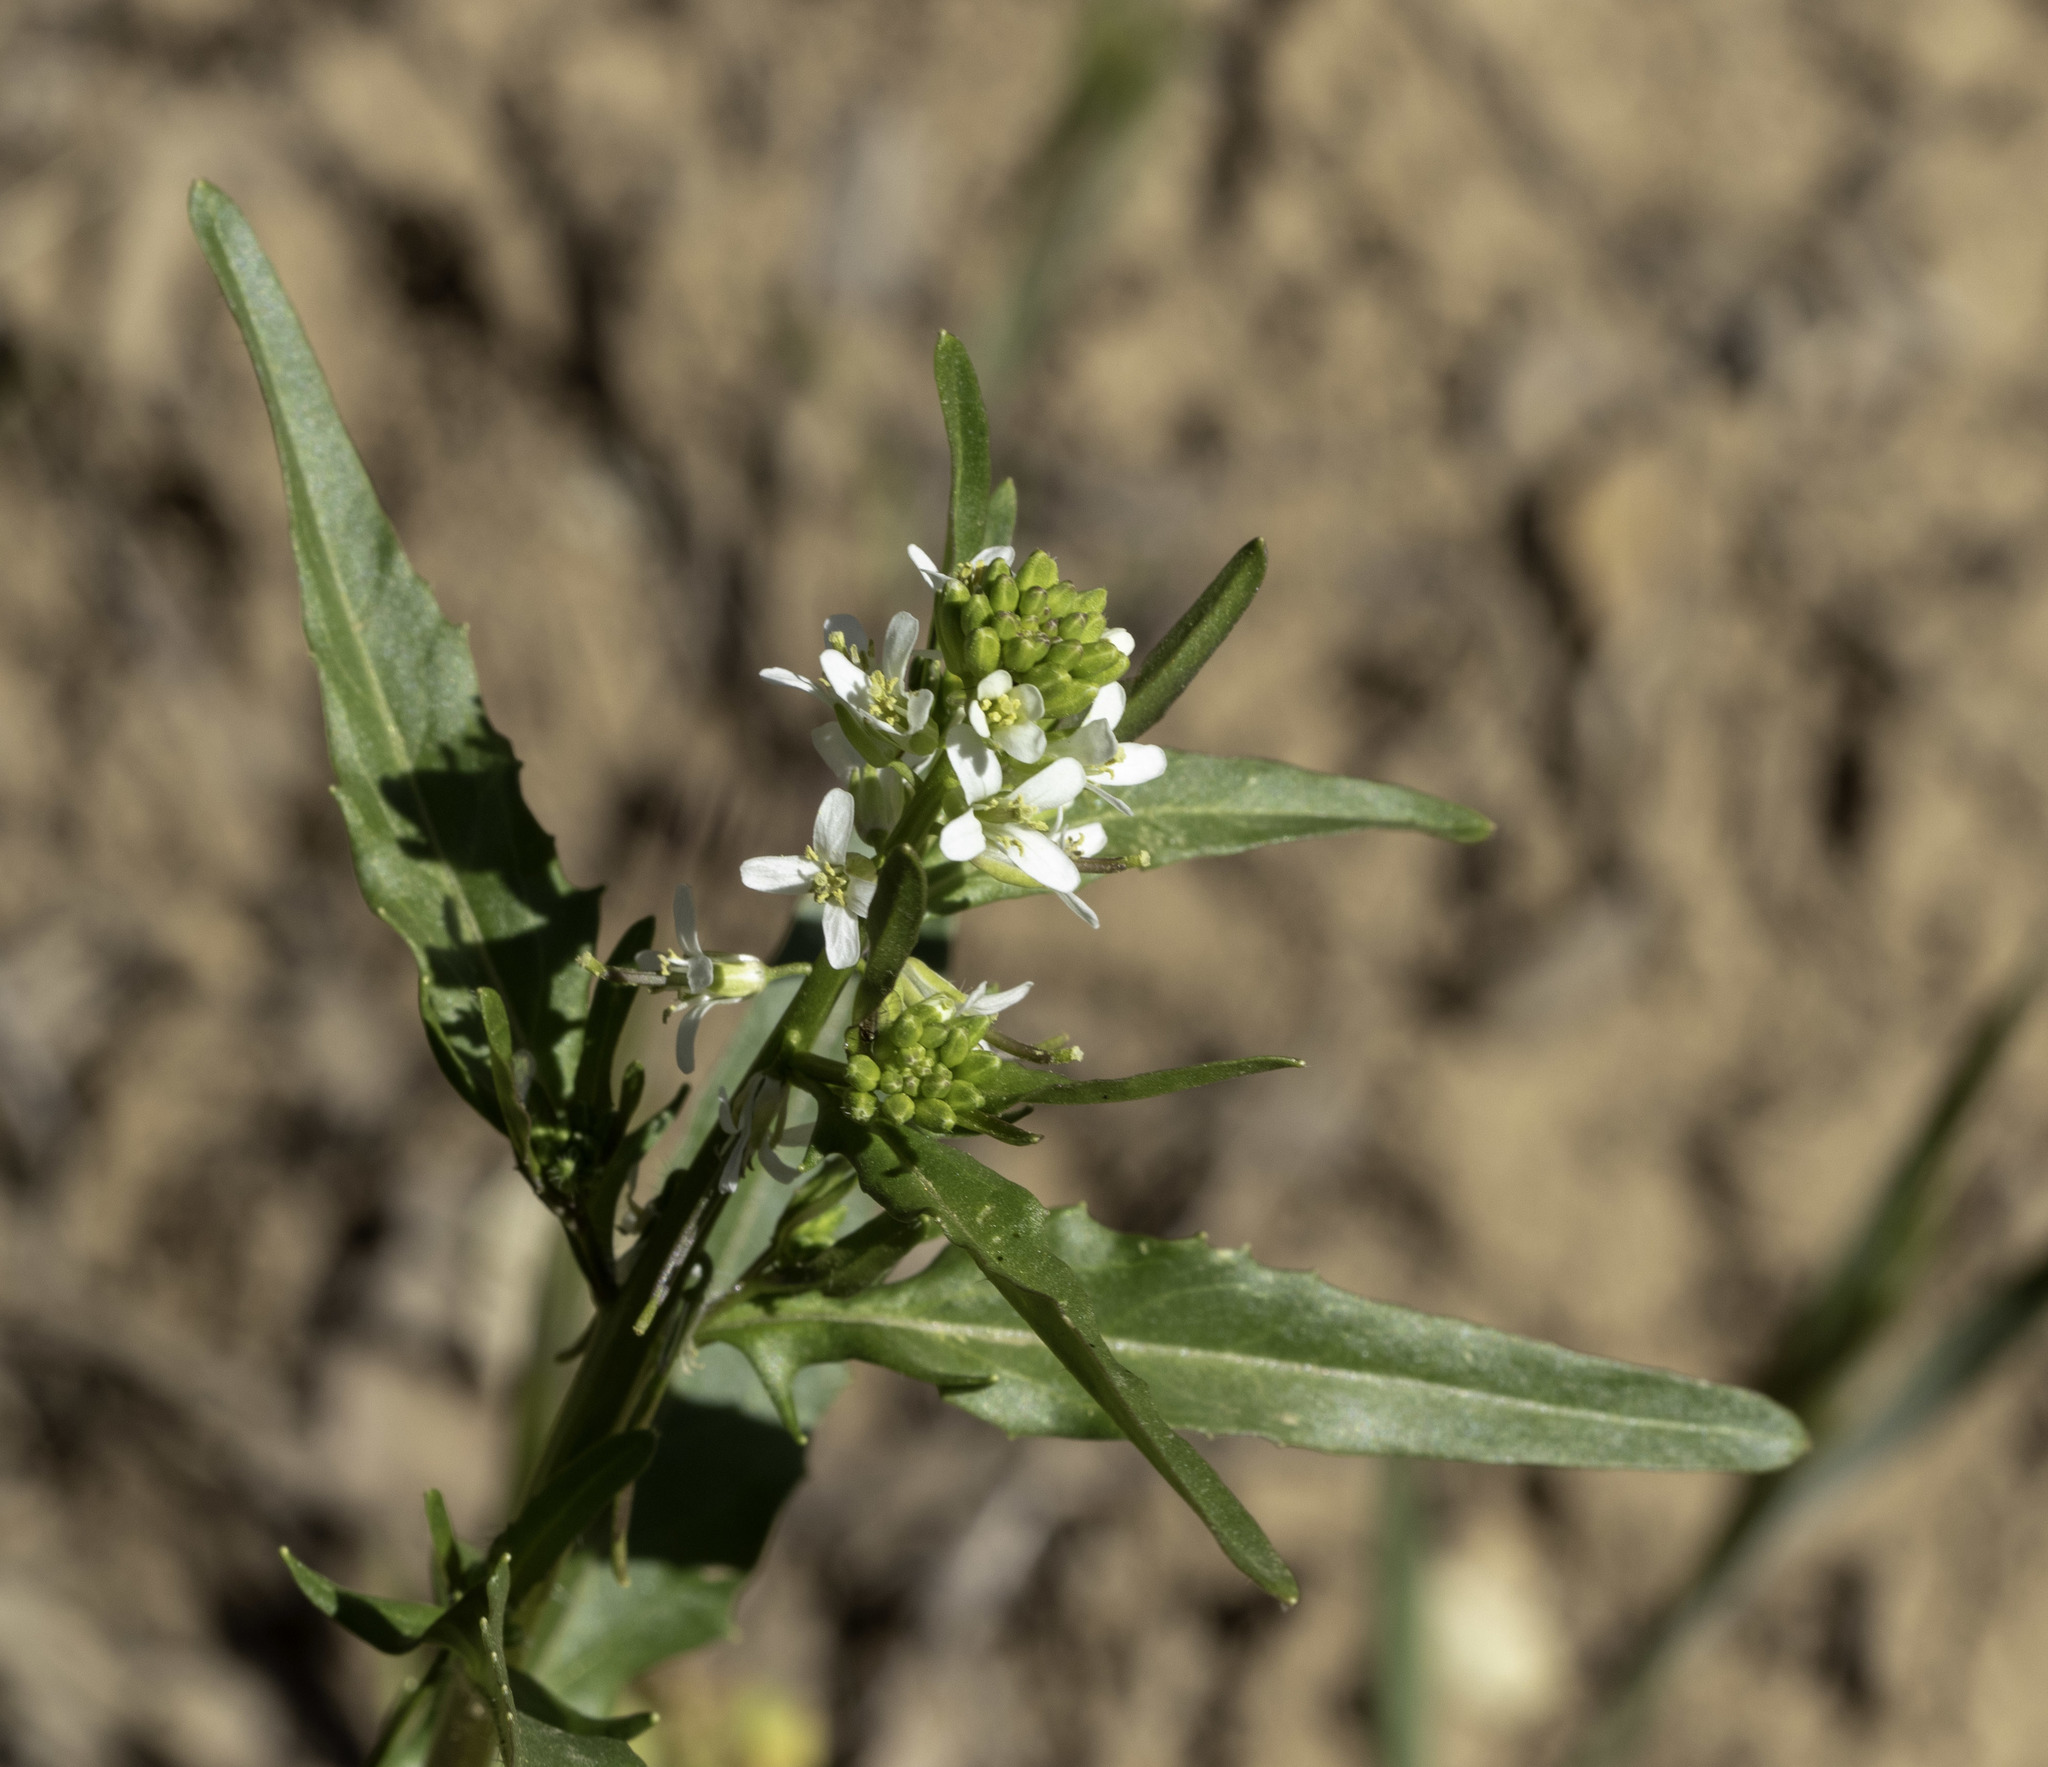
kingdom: Plantae
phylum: Tracheophyta
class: Magnoliopsida
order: Brassicales
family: Brassicaceae
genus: Streptanthus
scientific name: Streptanthus lasiophyllus
